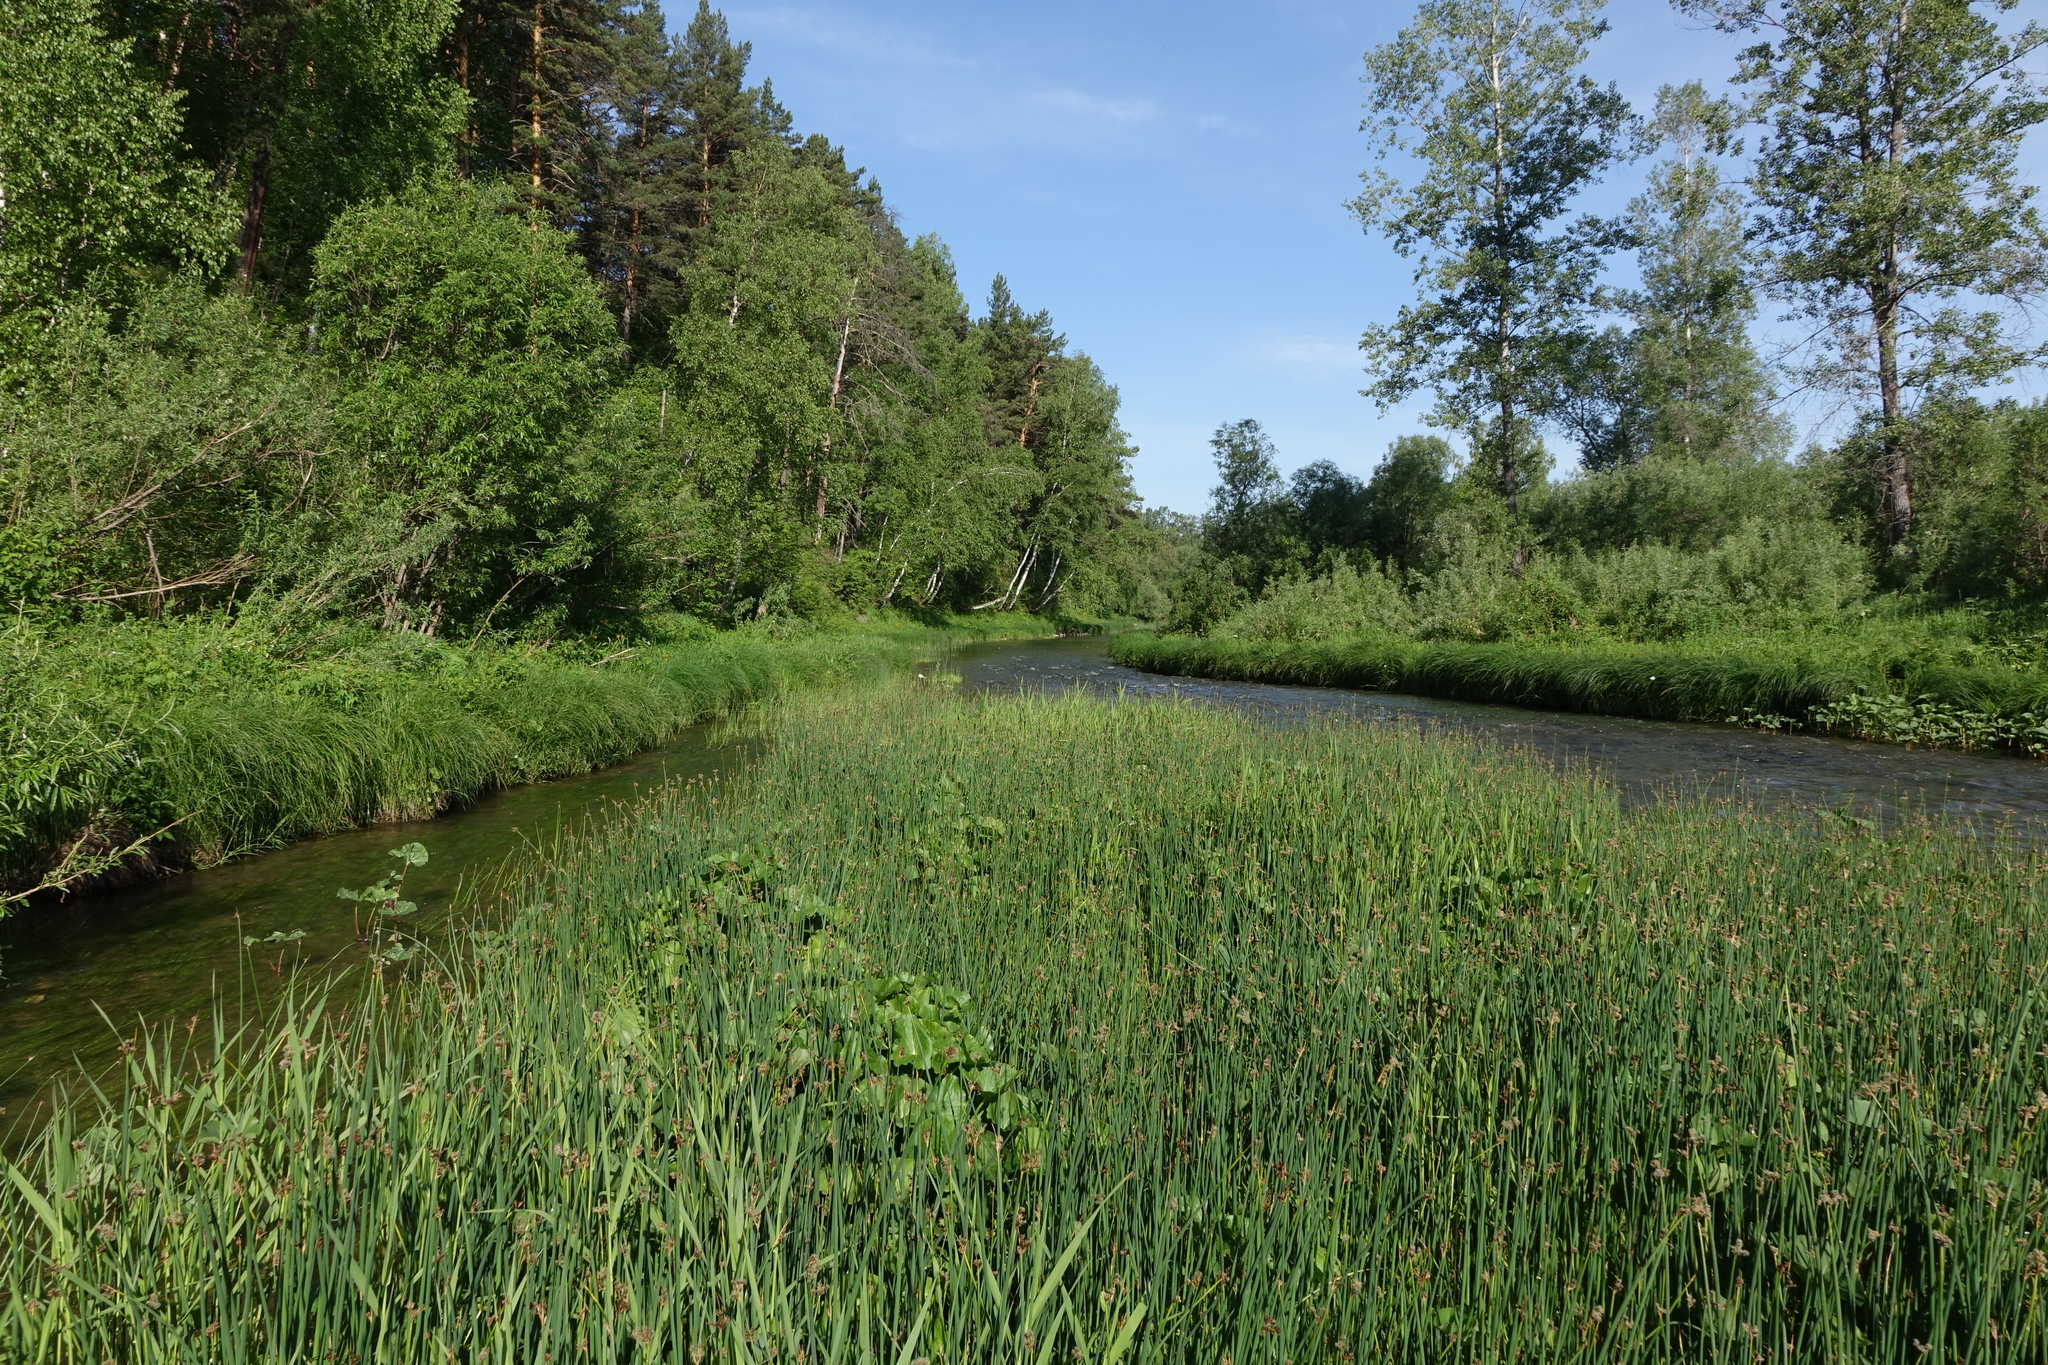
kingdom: Plantae
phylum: Tracheophyta
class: Liliopsida
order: Poales
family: Cyperaceae
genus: Schoenoplectus
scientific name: Schoenoplectus lacustris
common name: Common club-rush
